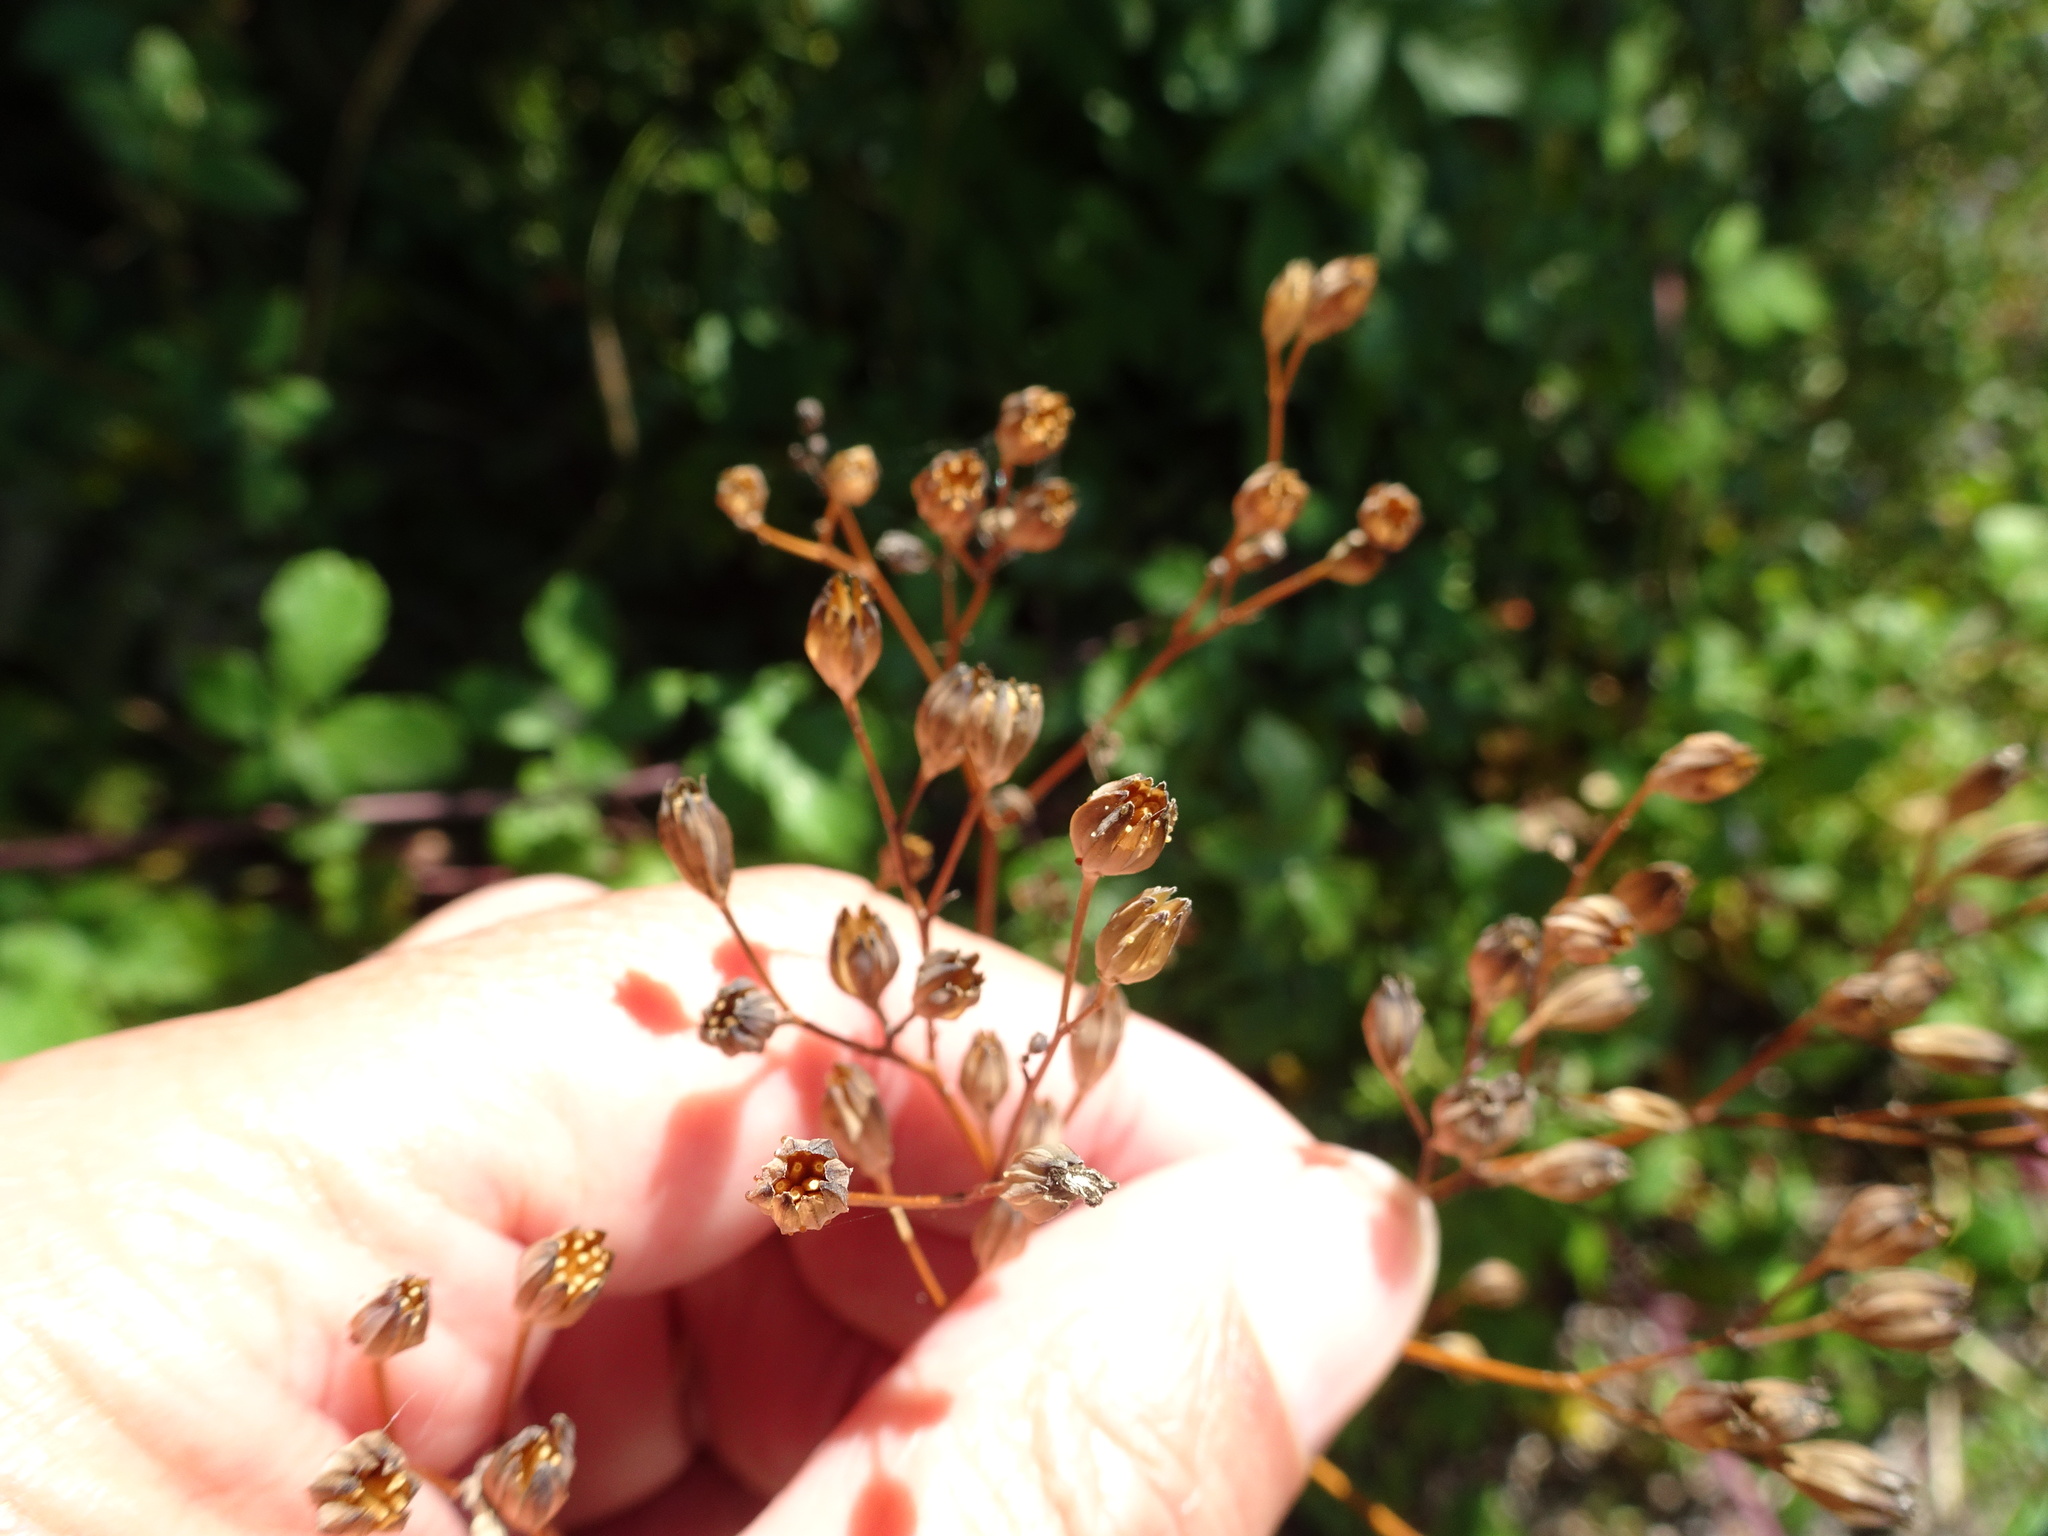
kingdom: Plantae
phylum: Tracheophyta
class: Magnoliopsida
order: Asterales
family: Asteraceae
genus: Lapsana
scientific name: Lapsana communis
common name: Nipplewort
